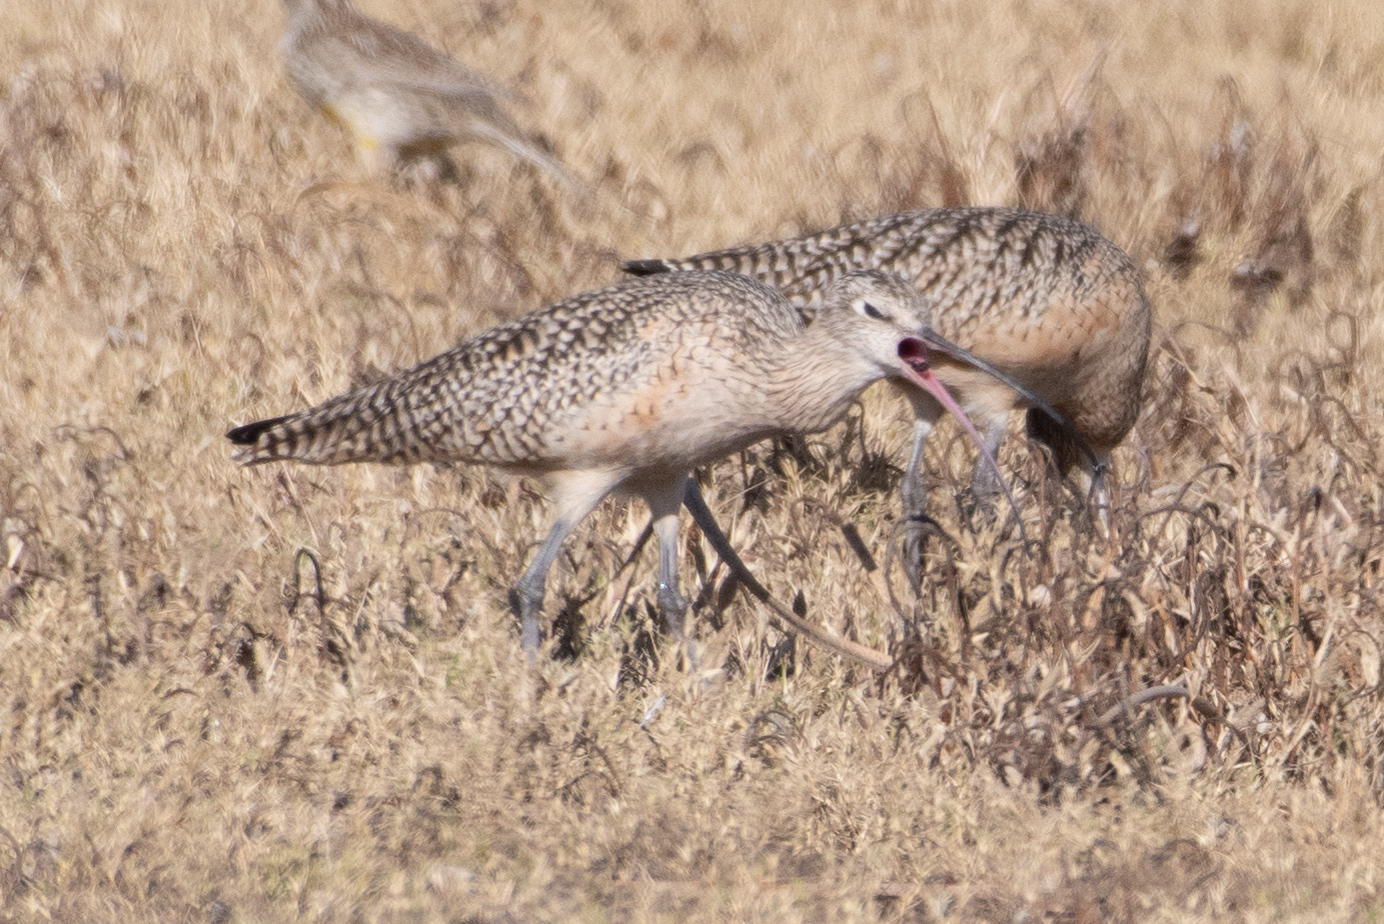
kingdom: Animalia
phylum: Chordata
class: Aves
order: Charadriiformes
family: Scolopacidae
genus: Numenius
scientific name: Numenius americanus
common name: Long-billed curlew
